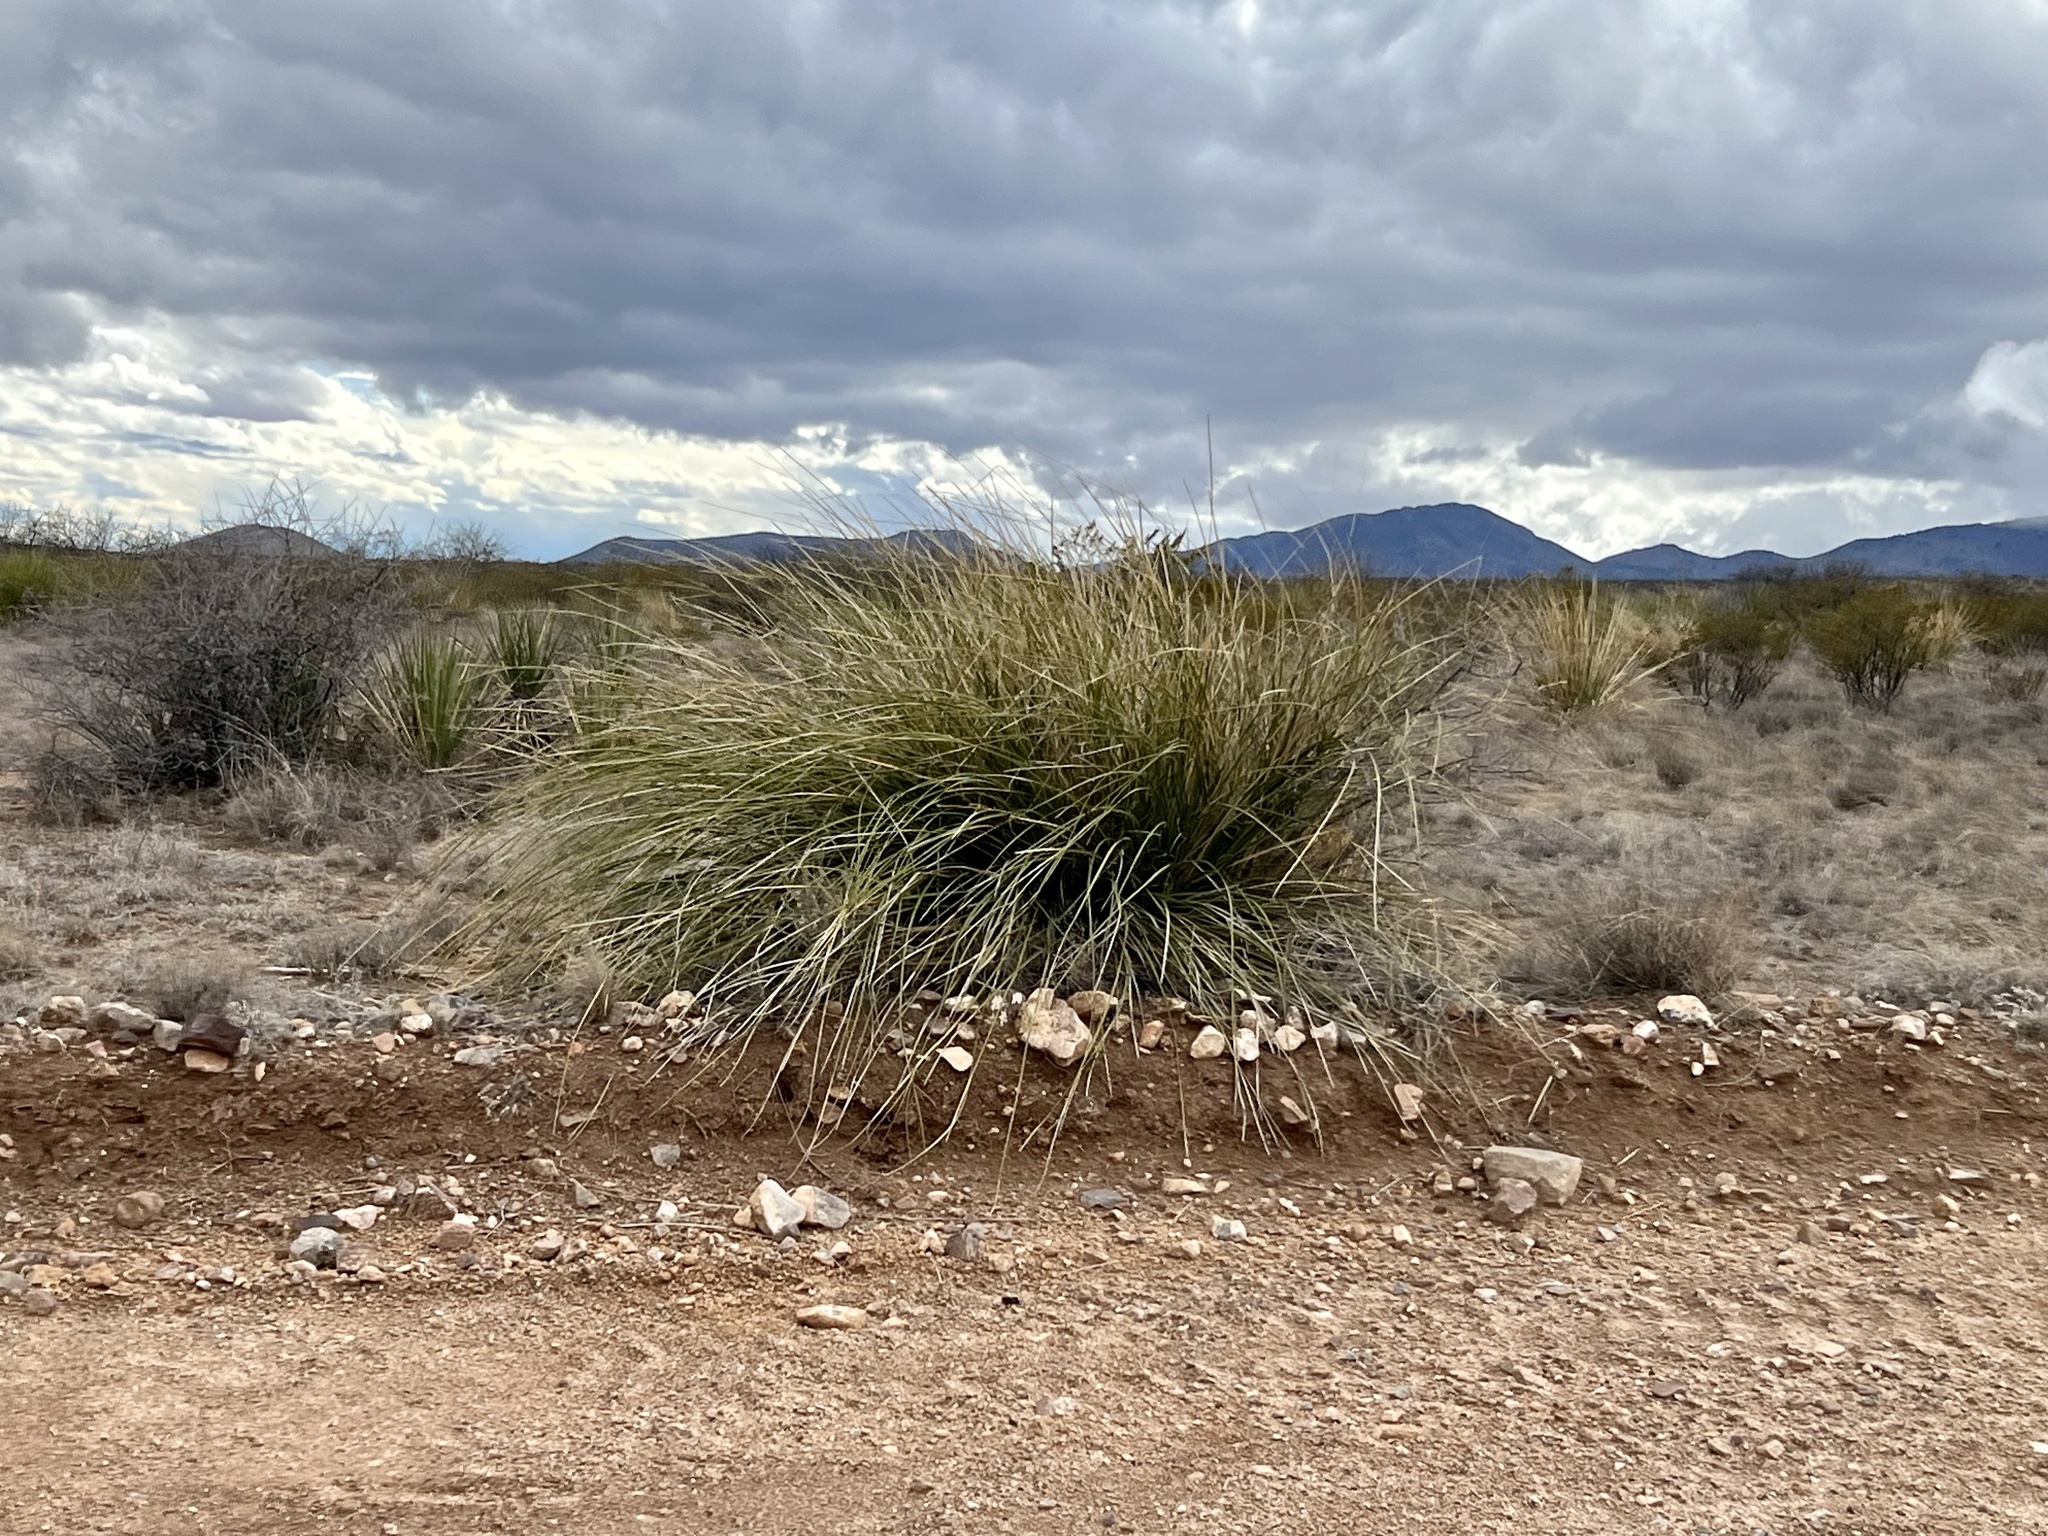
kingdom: Plantae
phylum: Tracheophyta
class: Liliopsida
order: Asparagales
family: Asparagaceae
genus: Nolina
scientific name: Nolina microcarpa
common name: Bear-grass
